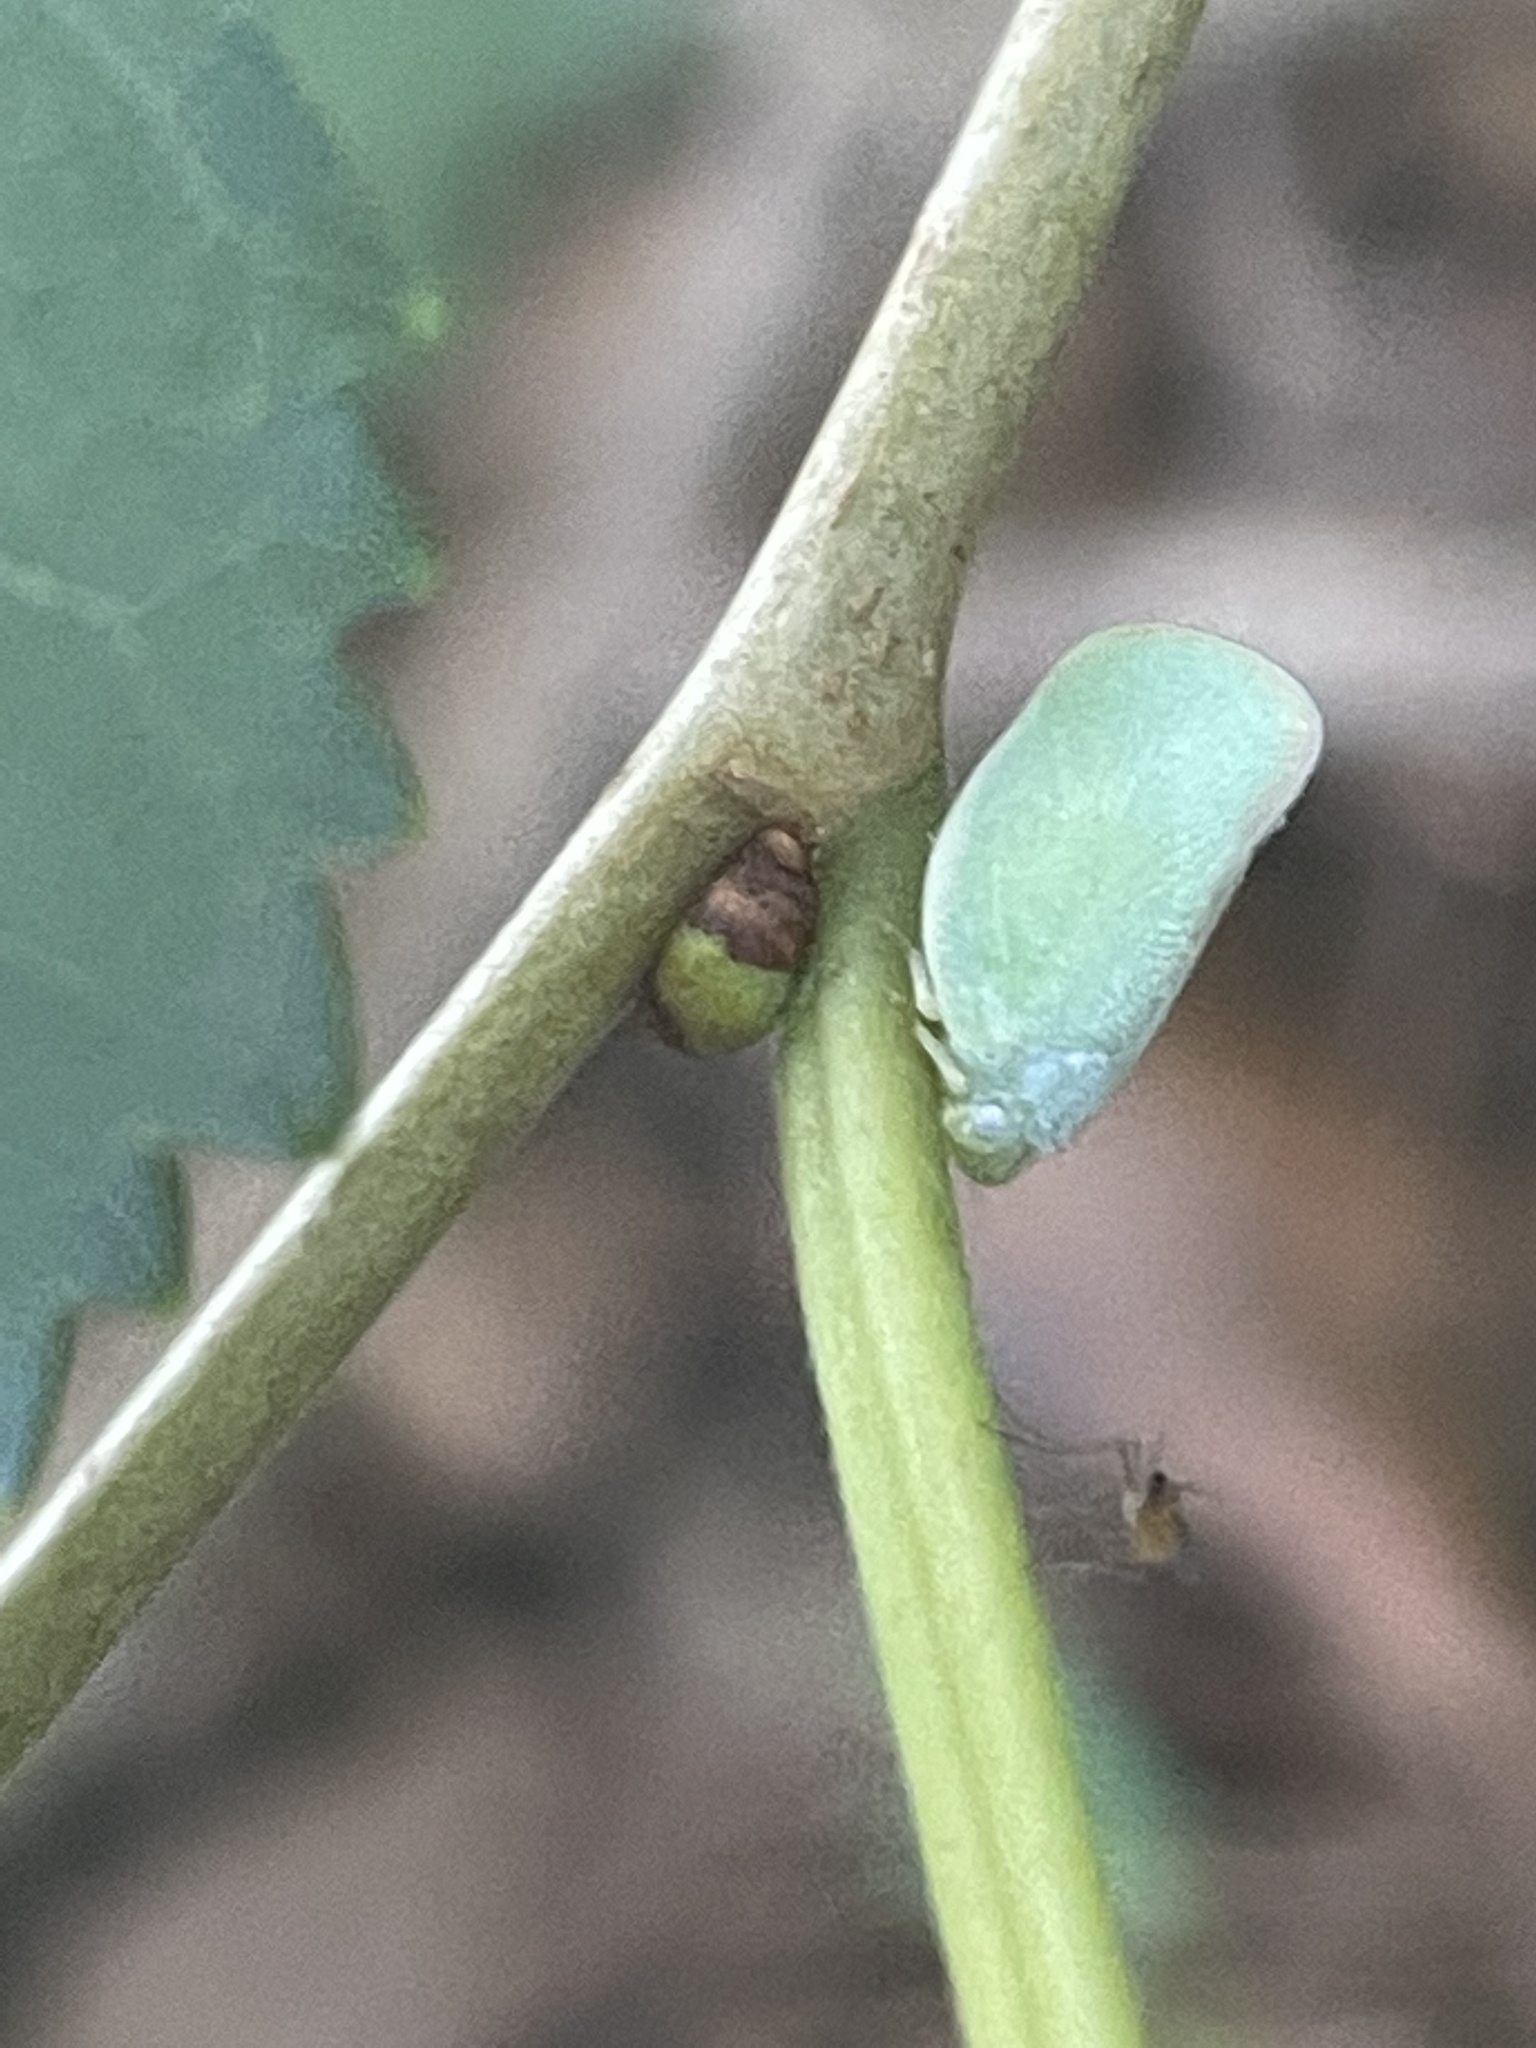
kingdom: Animalia
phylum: Arthropoda
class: Insecta
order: Hemiptera
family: Flatidae
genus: Ormenoides
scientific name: Ormenoides venusta
